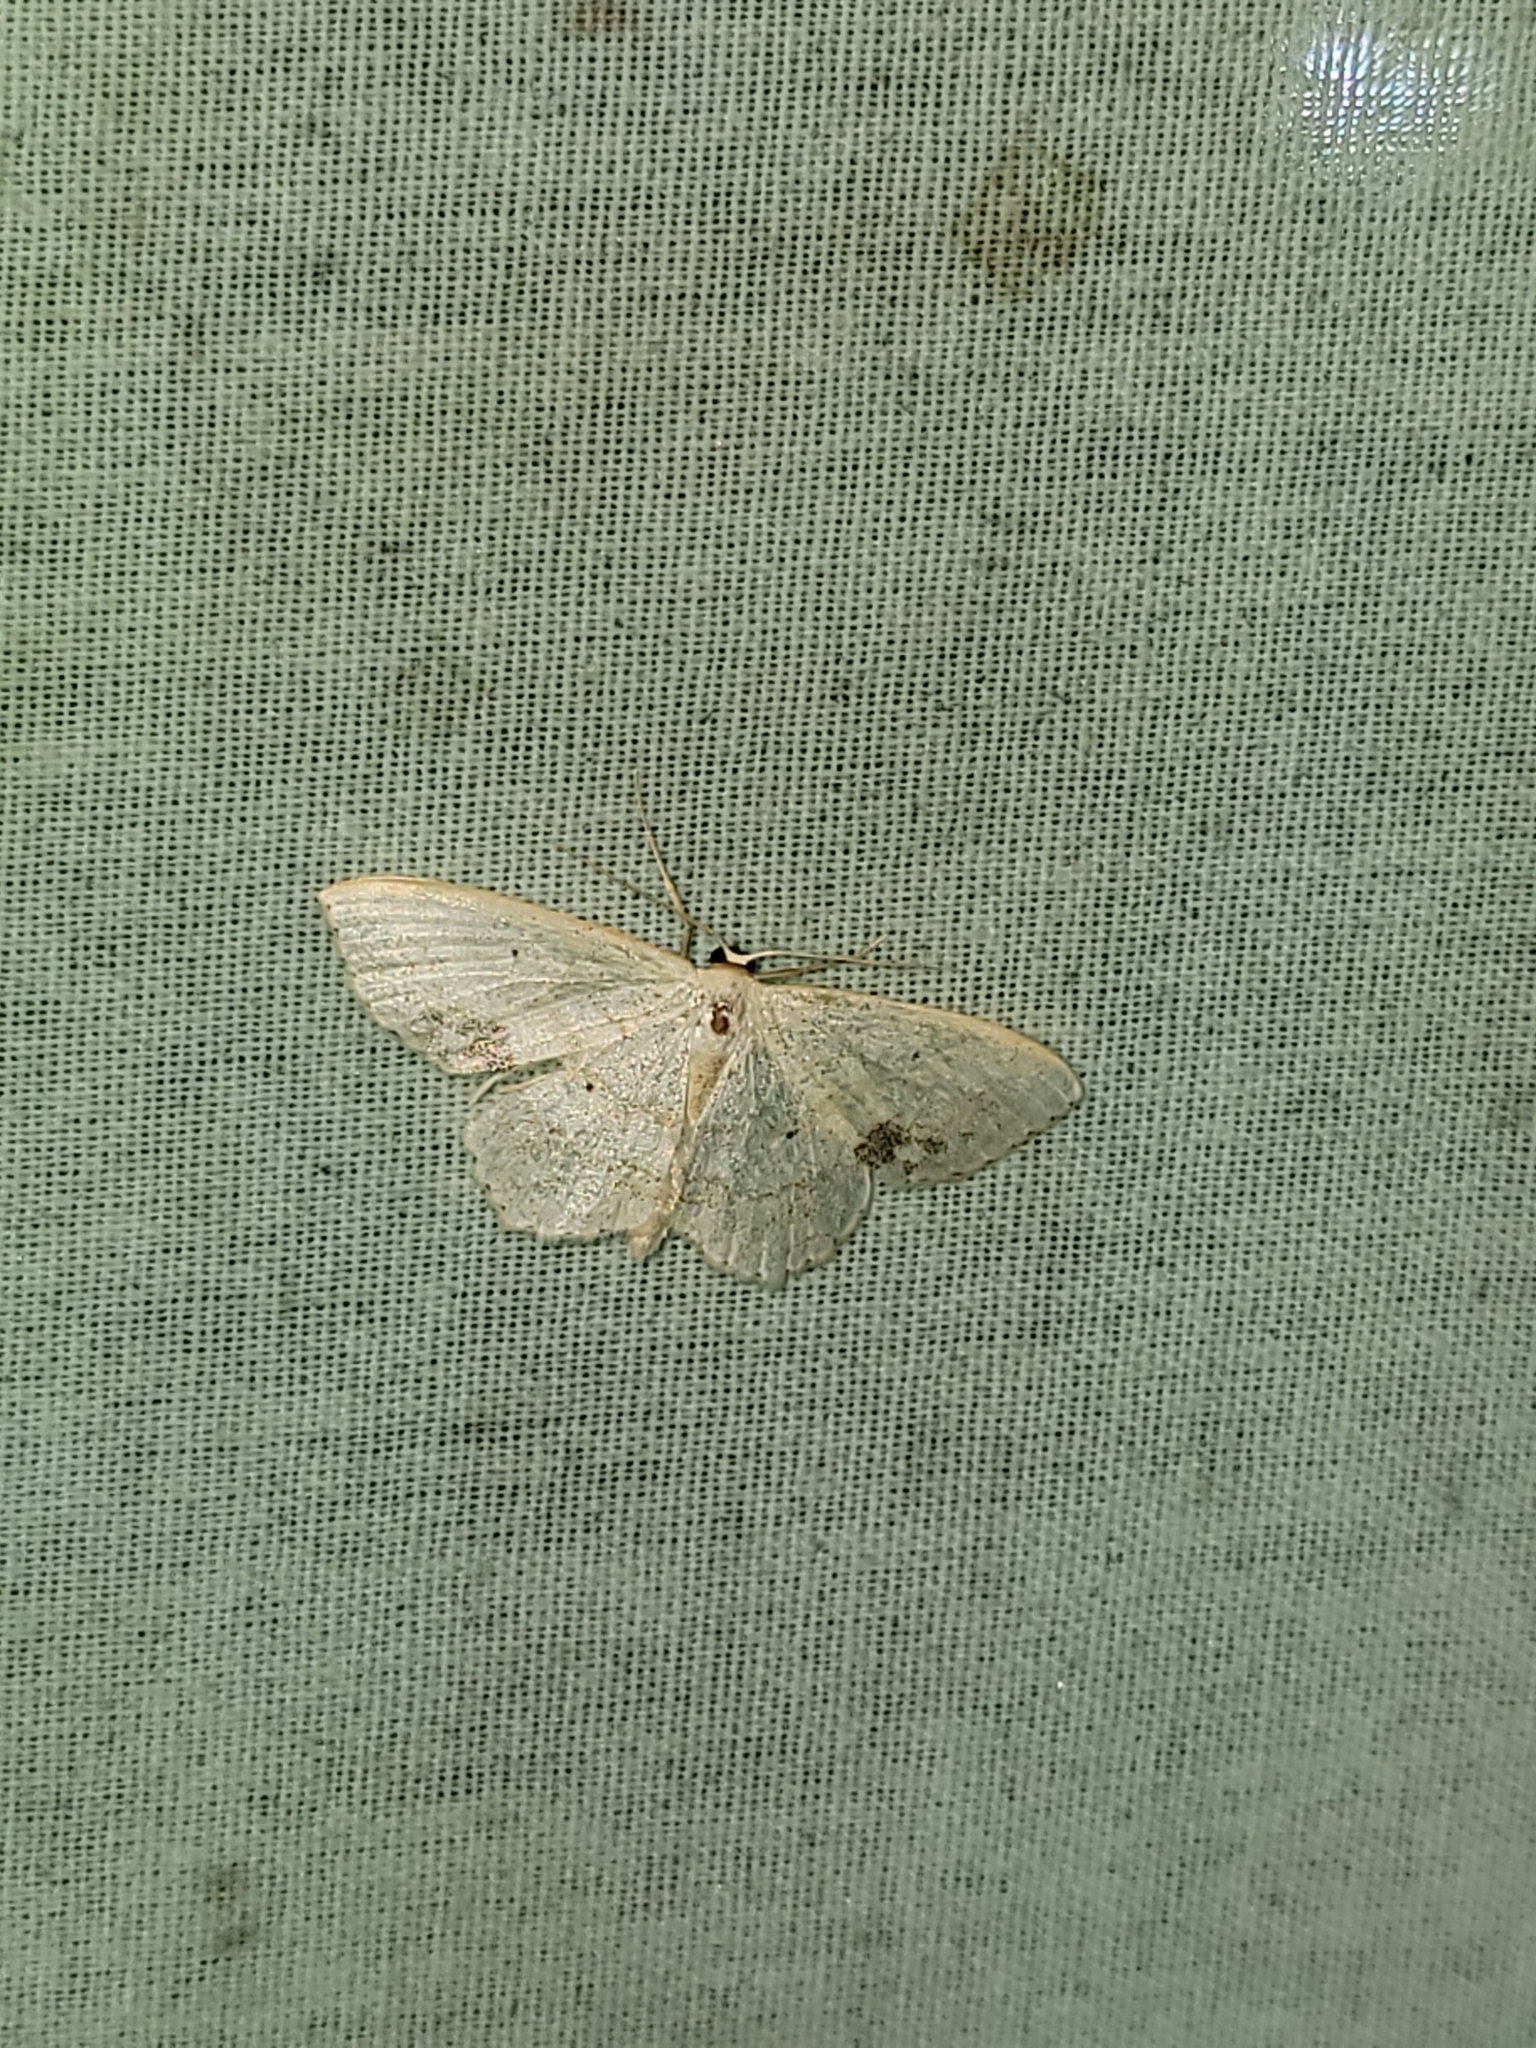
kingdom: Animalia
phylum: Arthropoda
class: Insecta
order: Lepidoptera
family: Geometridae
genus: Scopula
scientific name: Scopula limboundata
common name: Large lace border
